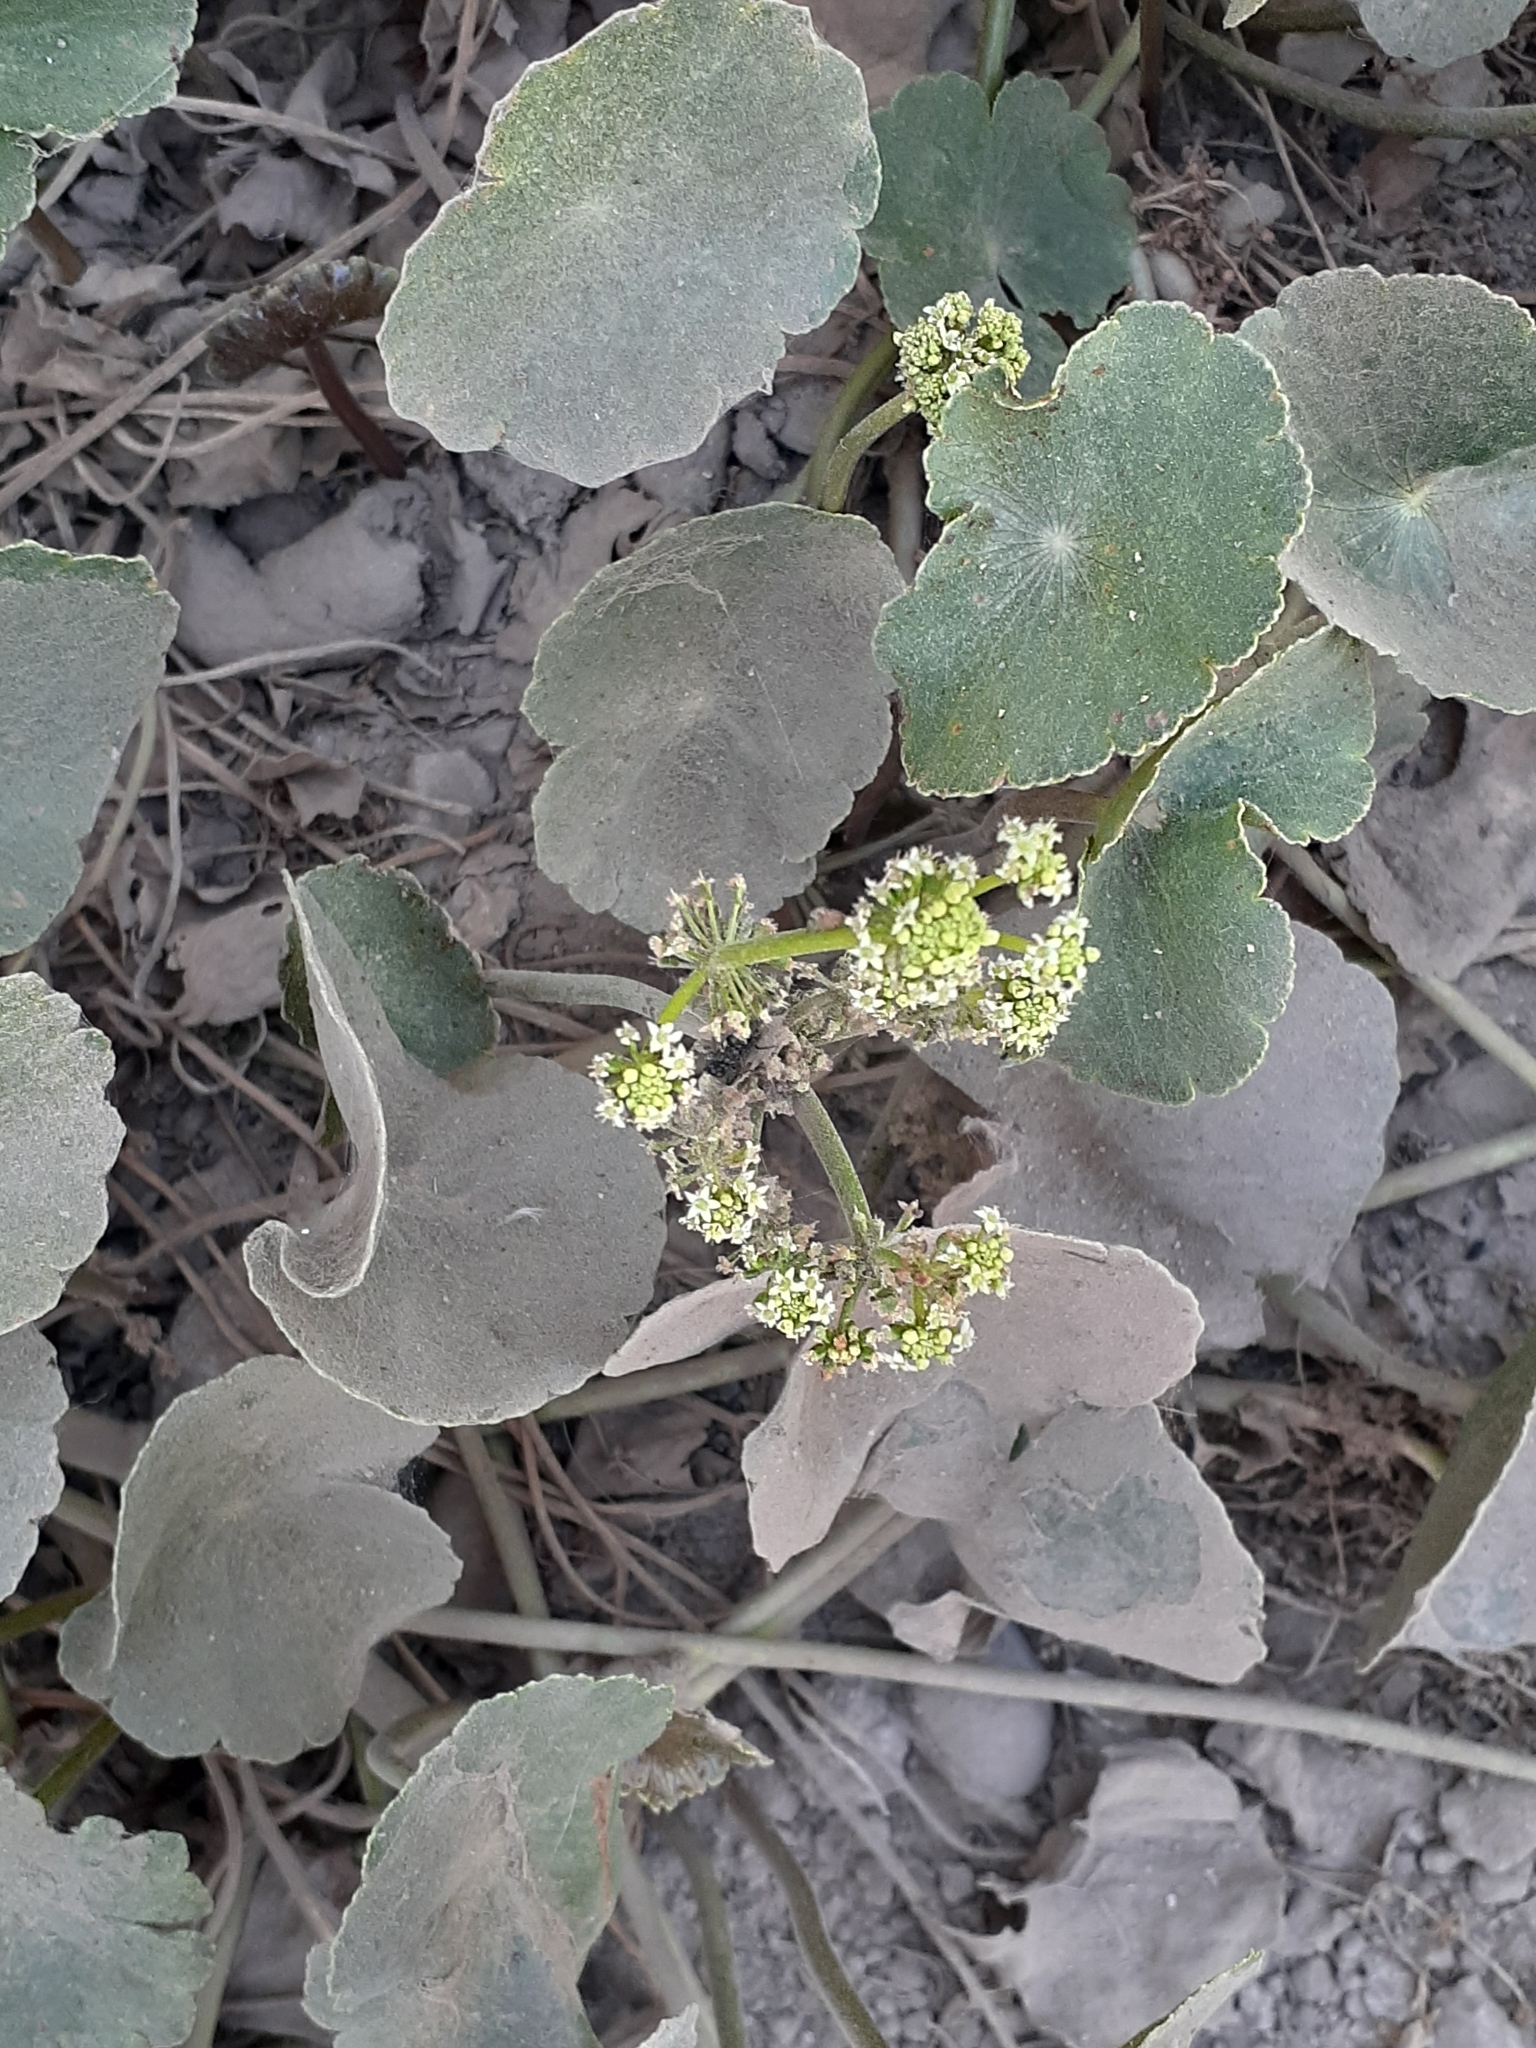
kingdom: Plantae
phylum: Tracheophyta
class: Magnoliopsida
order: Apiales
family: Araliaceae
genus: Hydrocotyle
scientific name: Hydrocotyle bonariensis
